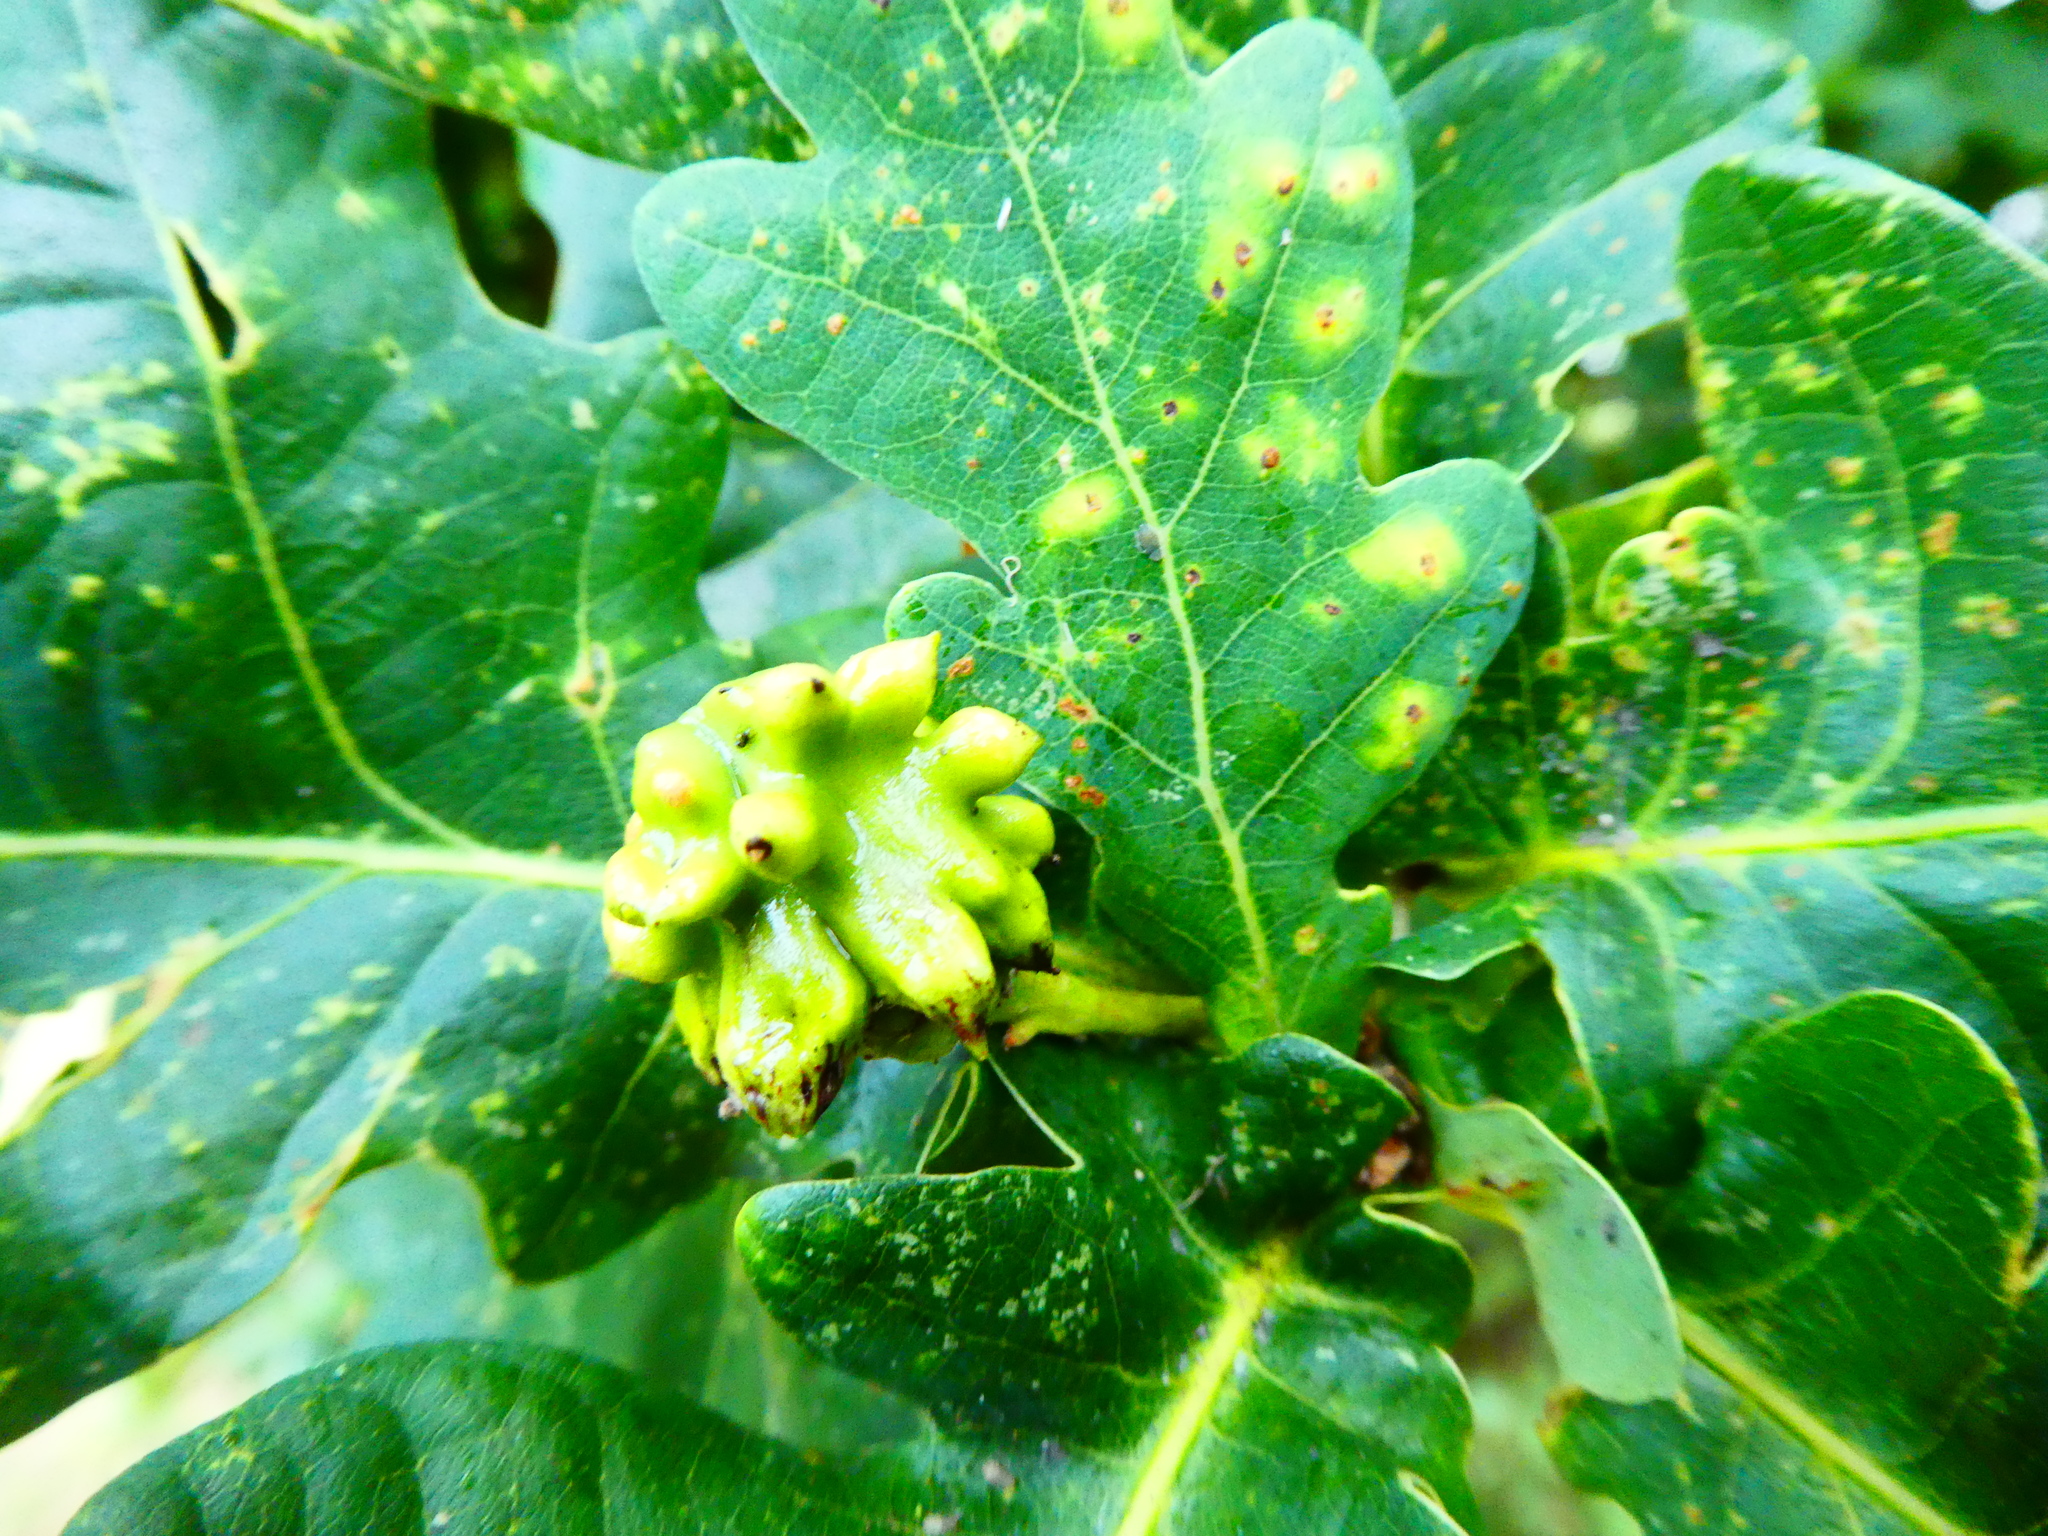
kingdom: Animalia
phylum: Arthropoda
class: Insecta
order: Hymenoptera
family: Cynipidae
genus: Andricus
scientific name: Andricus quercuscalicis
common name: Knopper gall
